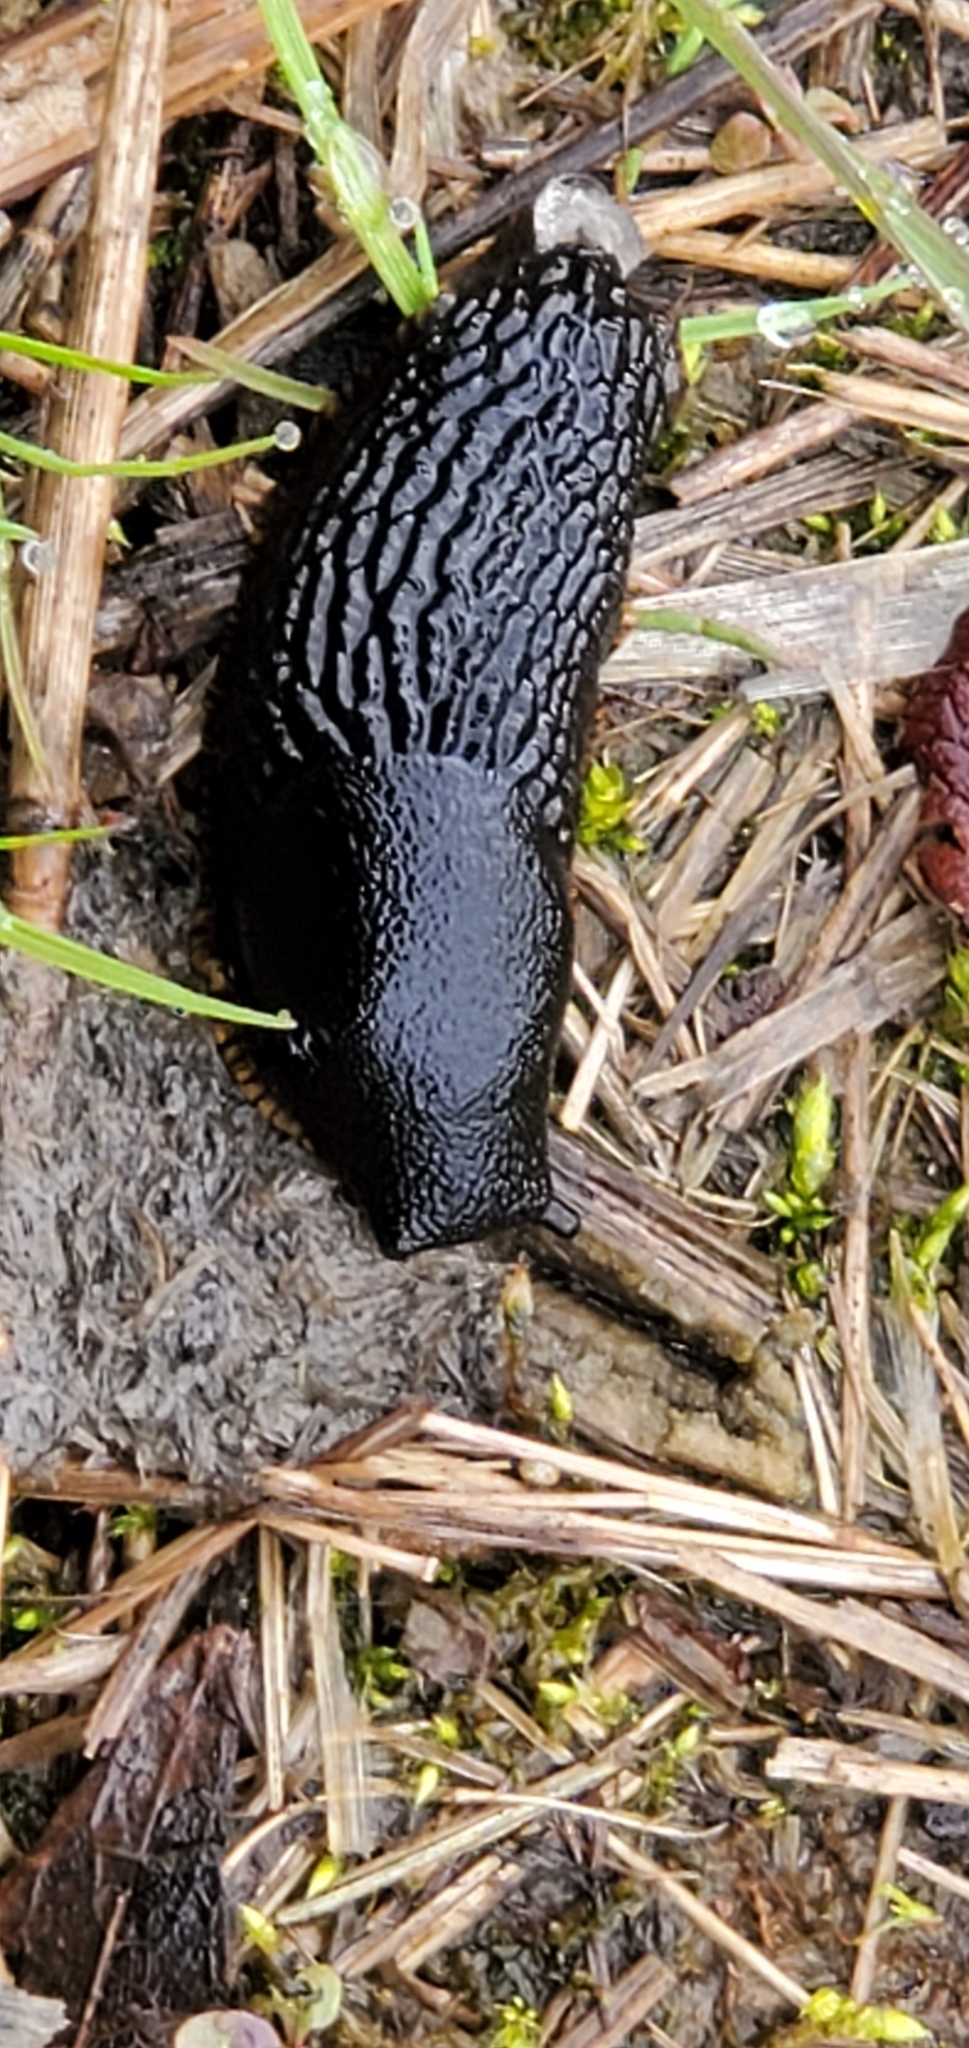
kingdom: Animalia
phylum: Mollusca
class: Gastropoda
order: Stylommatophora
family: Arionidae
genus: Arion
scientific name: Arion
